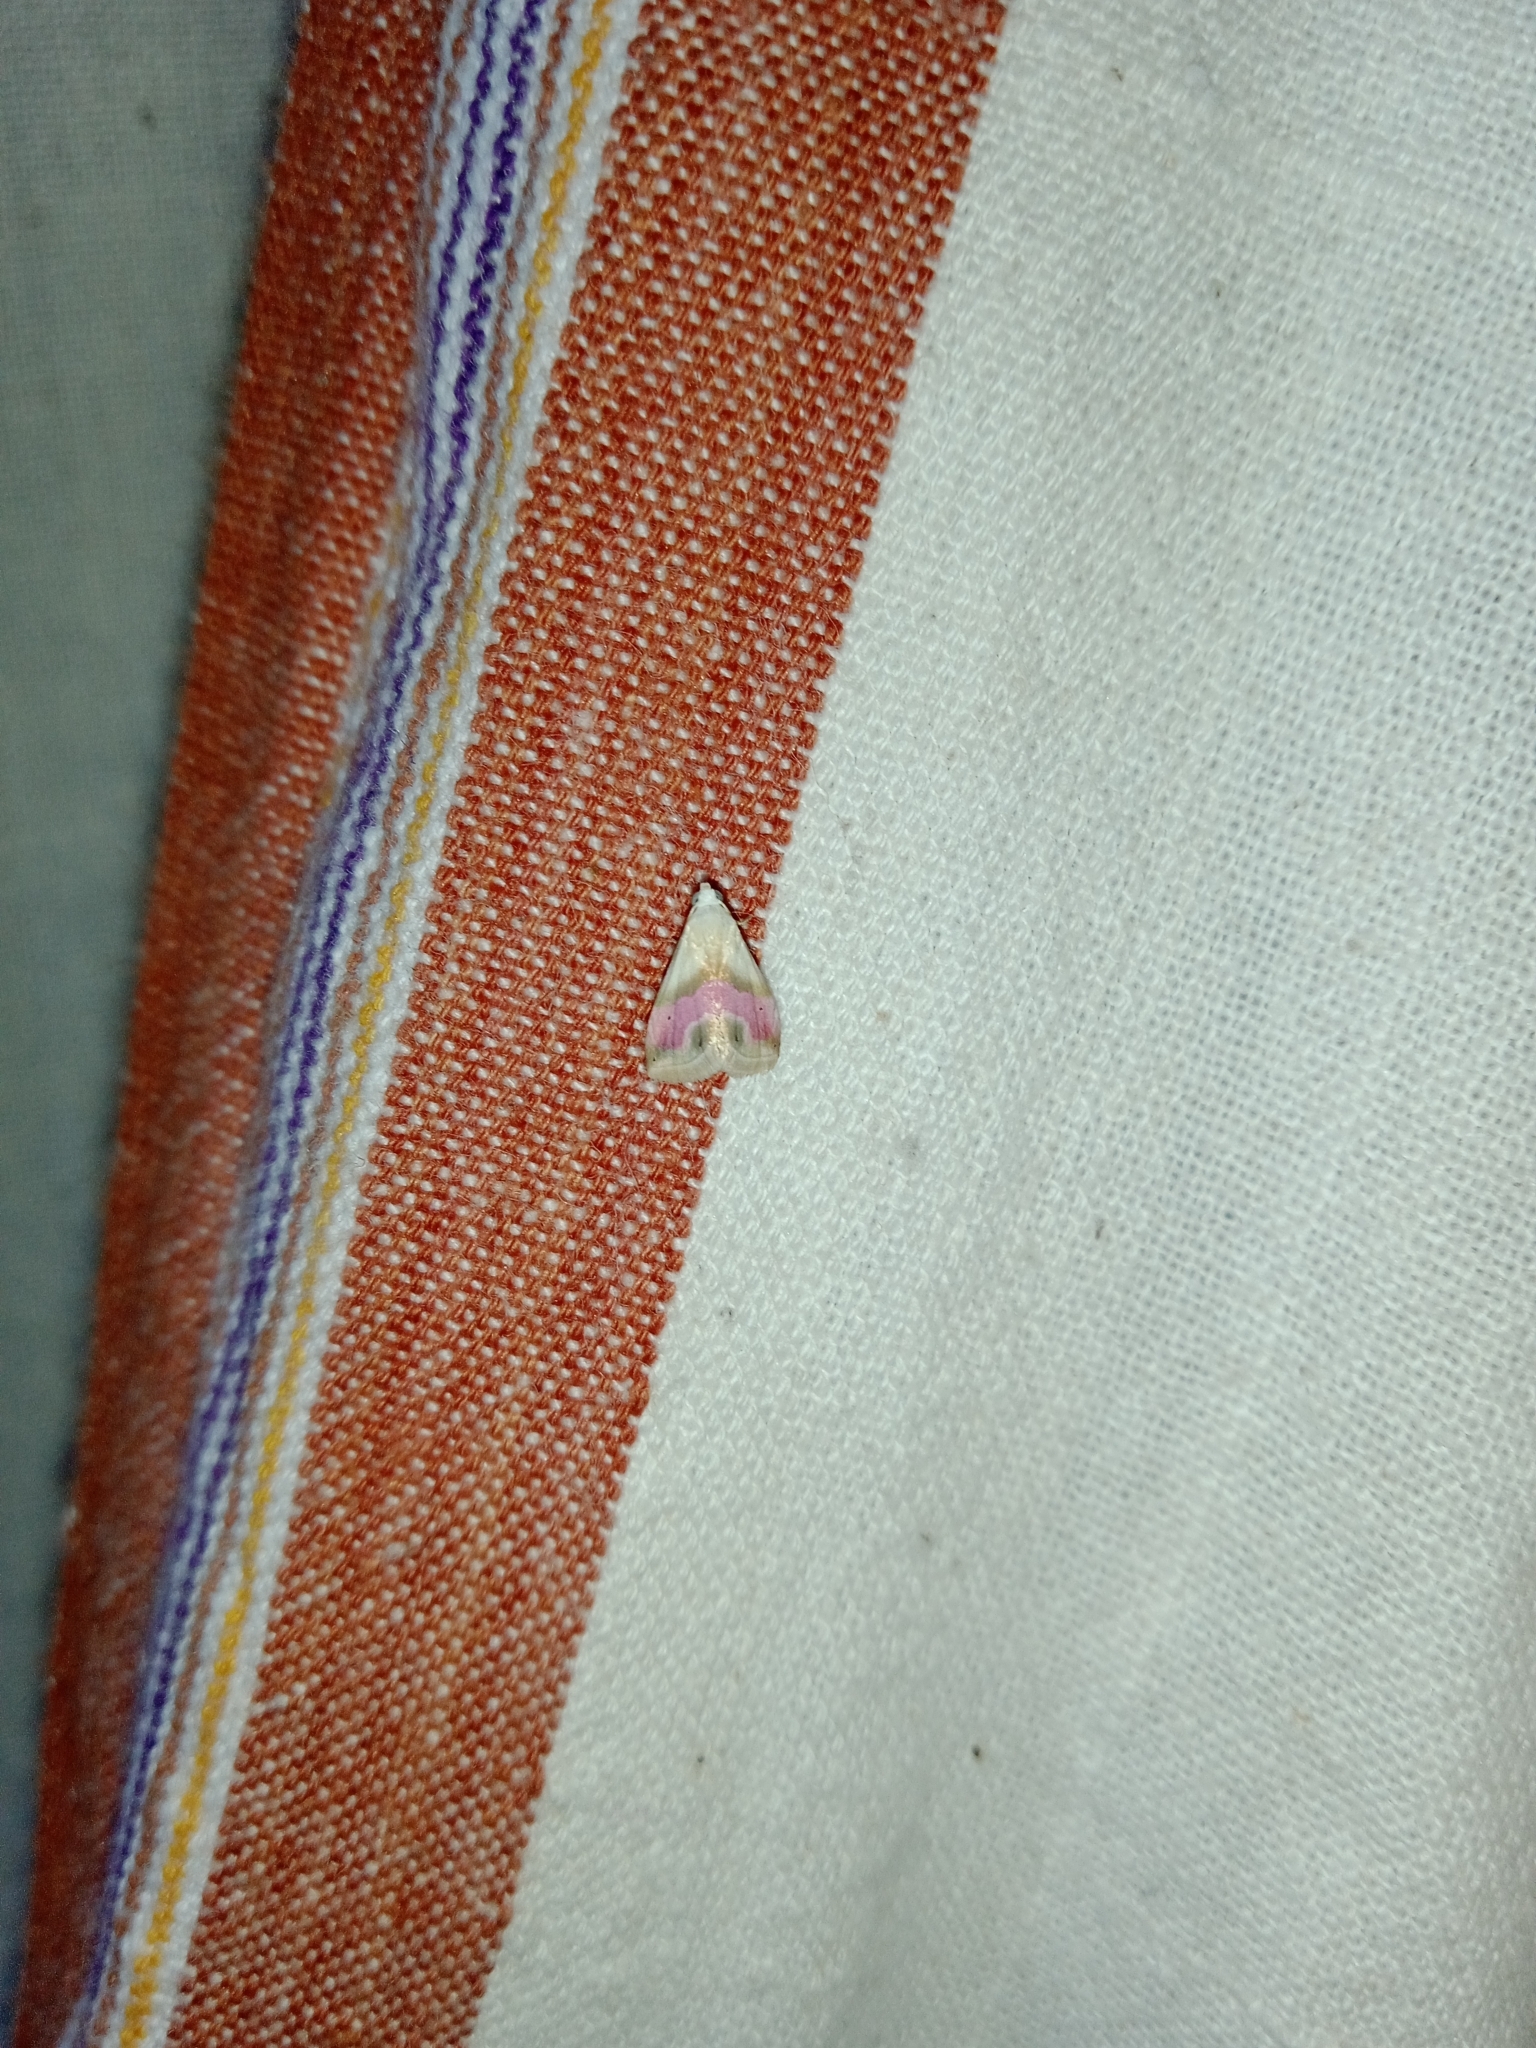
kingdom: Animalia
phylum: Arthropoda
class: Insecta
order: Lepidoptera
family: Noctuidae
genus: Eublemma
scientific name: Eublemma roseana
